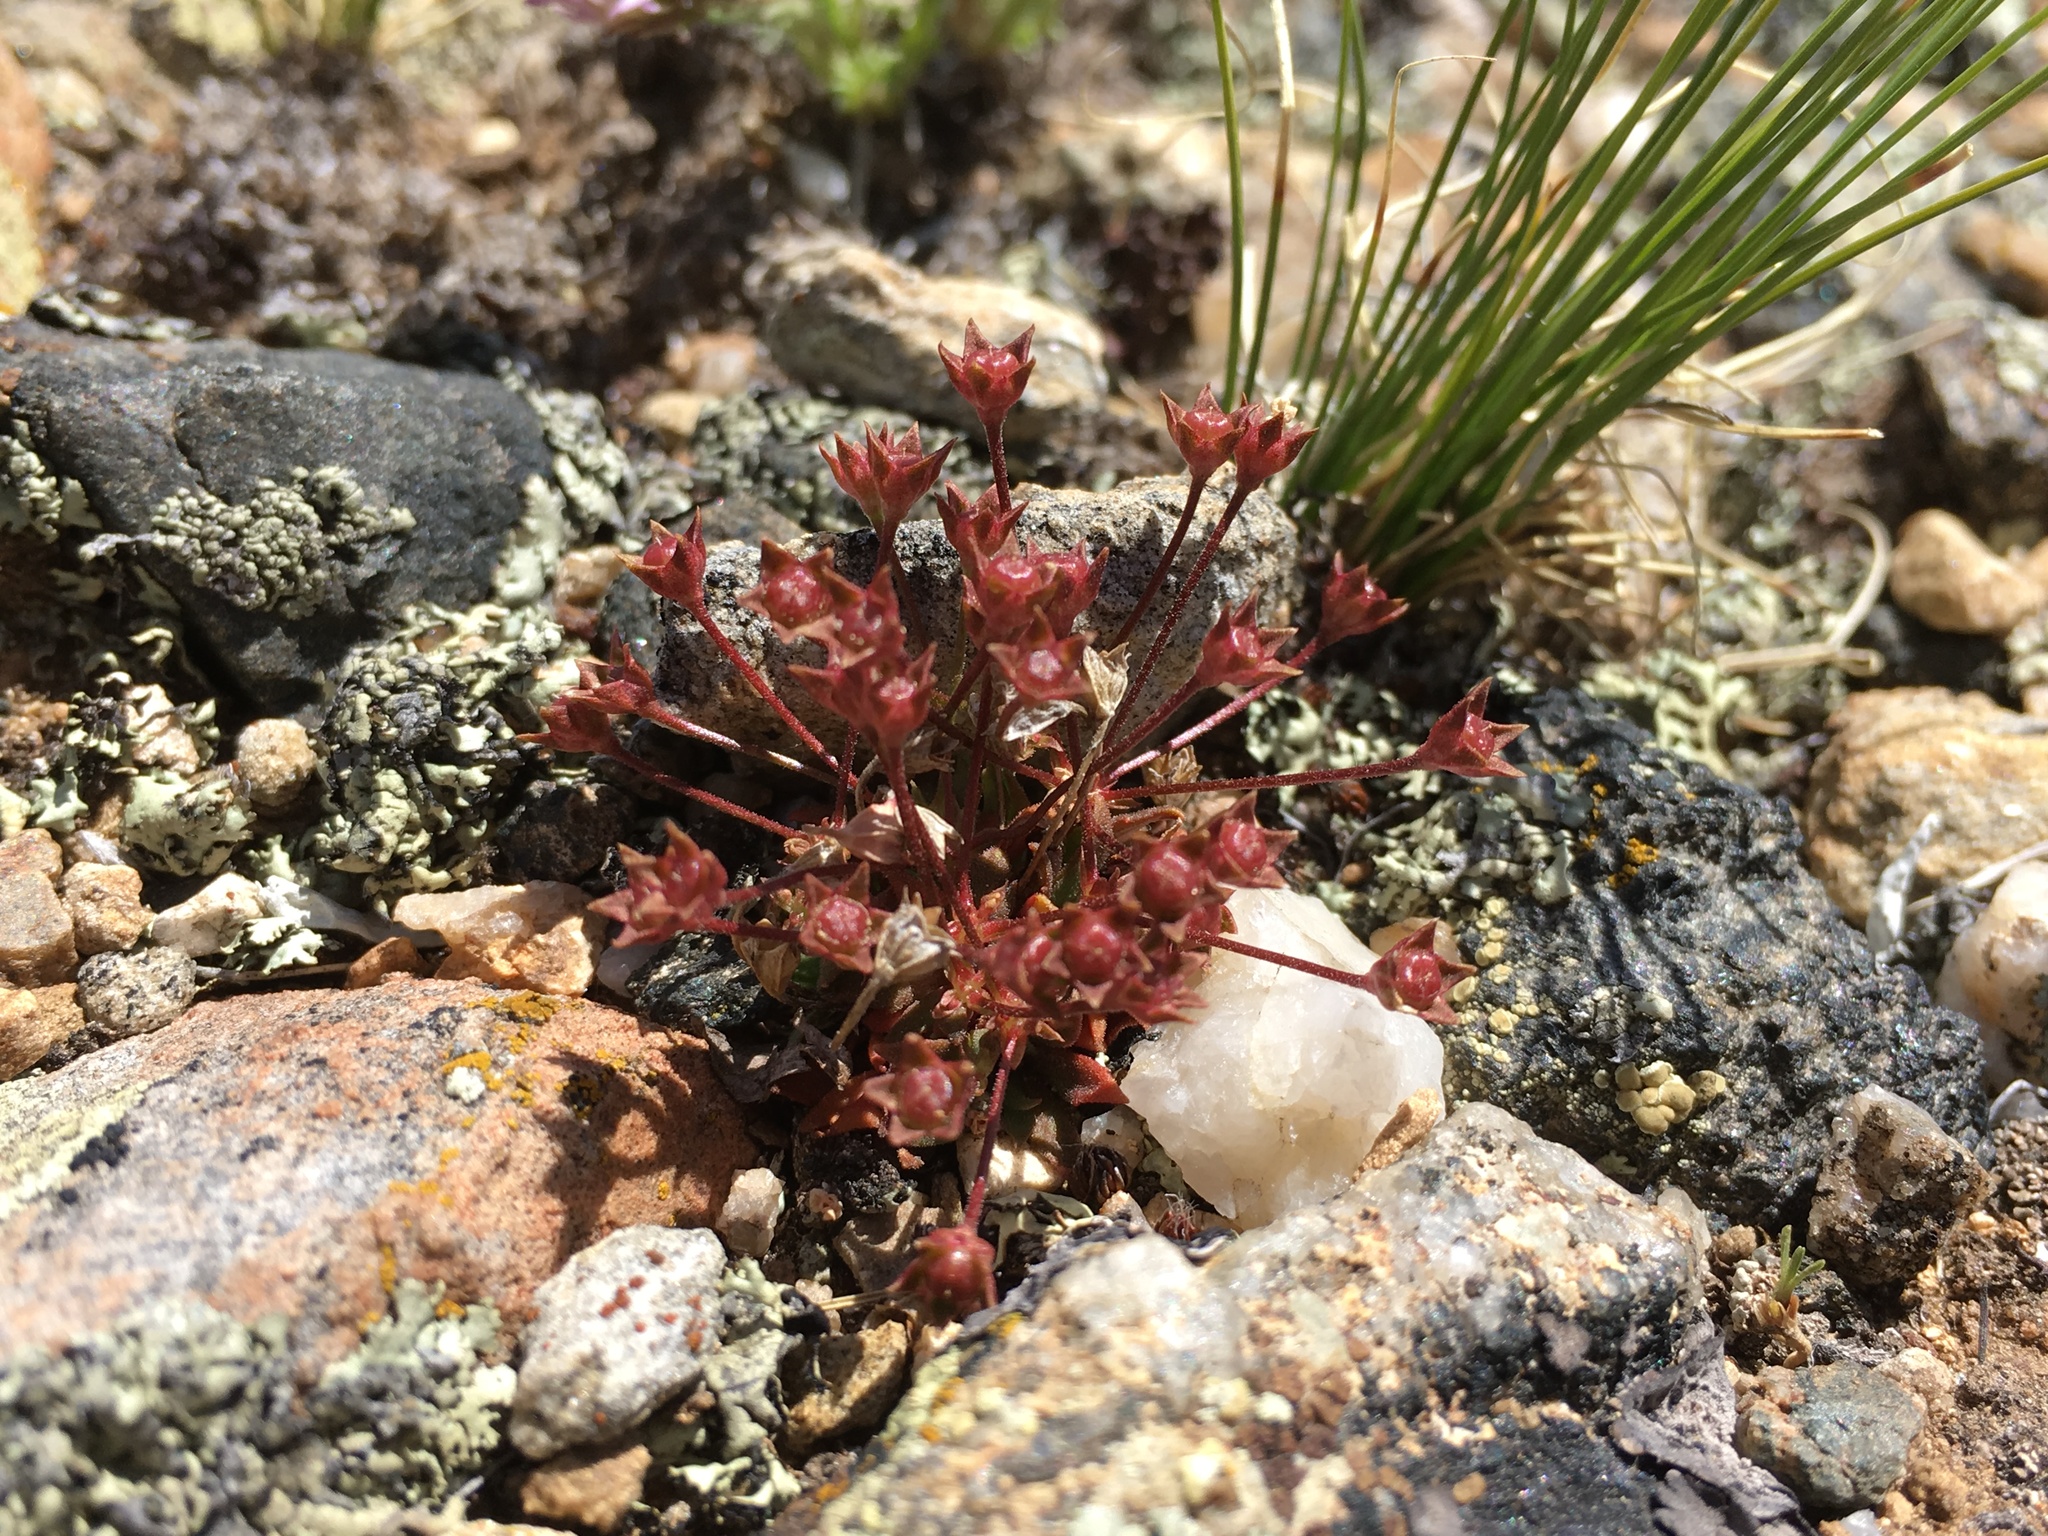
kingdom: Plantae
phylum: Tracheophyta
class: Magnoliopsida
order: Ericales
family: Primulaceae
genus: Androsace
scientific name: Androsace septentrionalis
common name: Hairy northern fairy-candelabra
